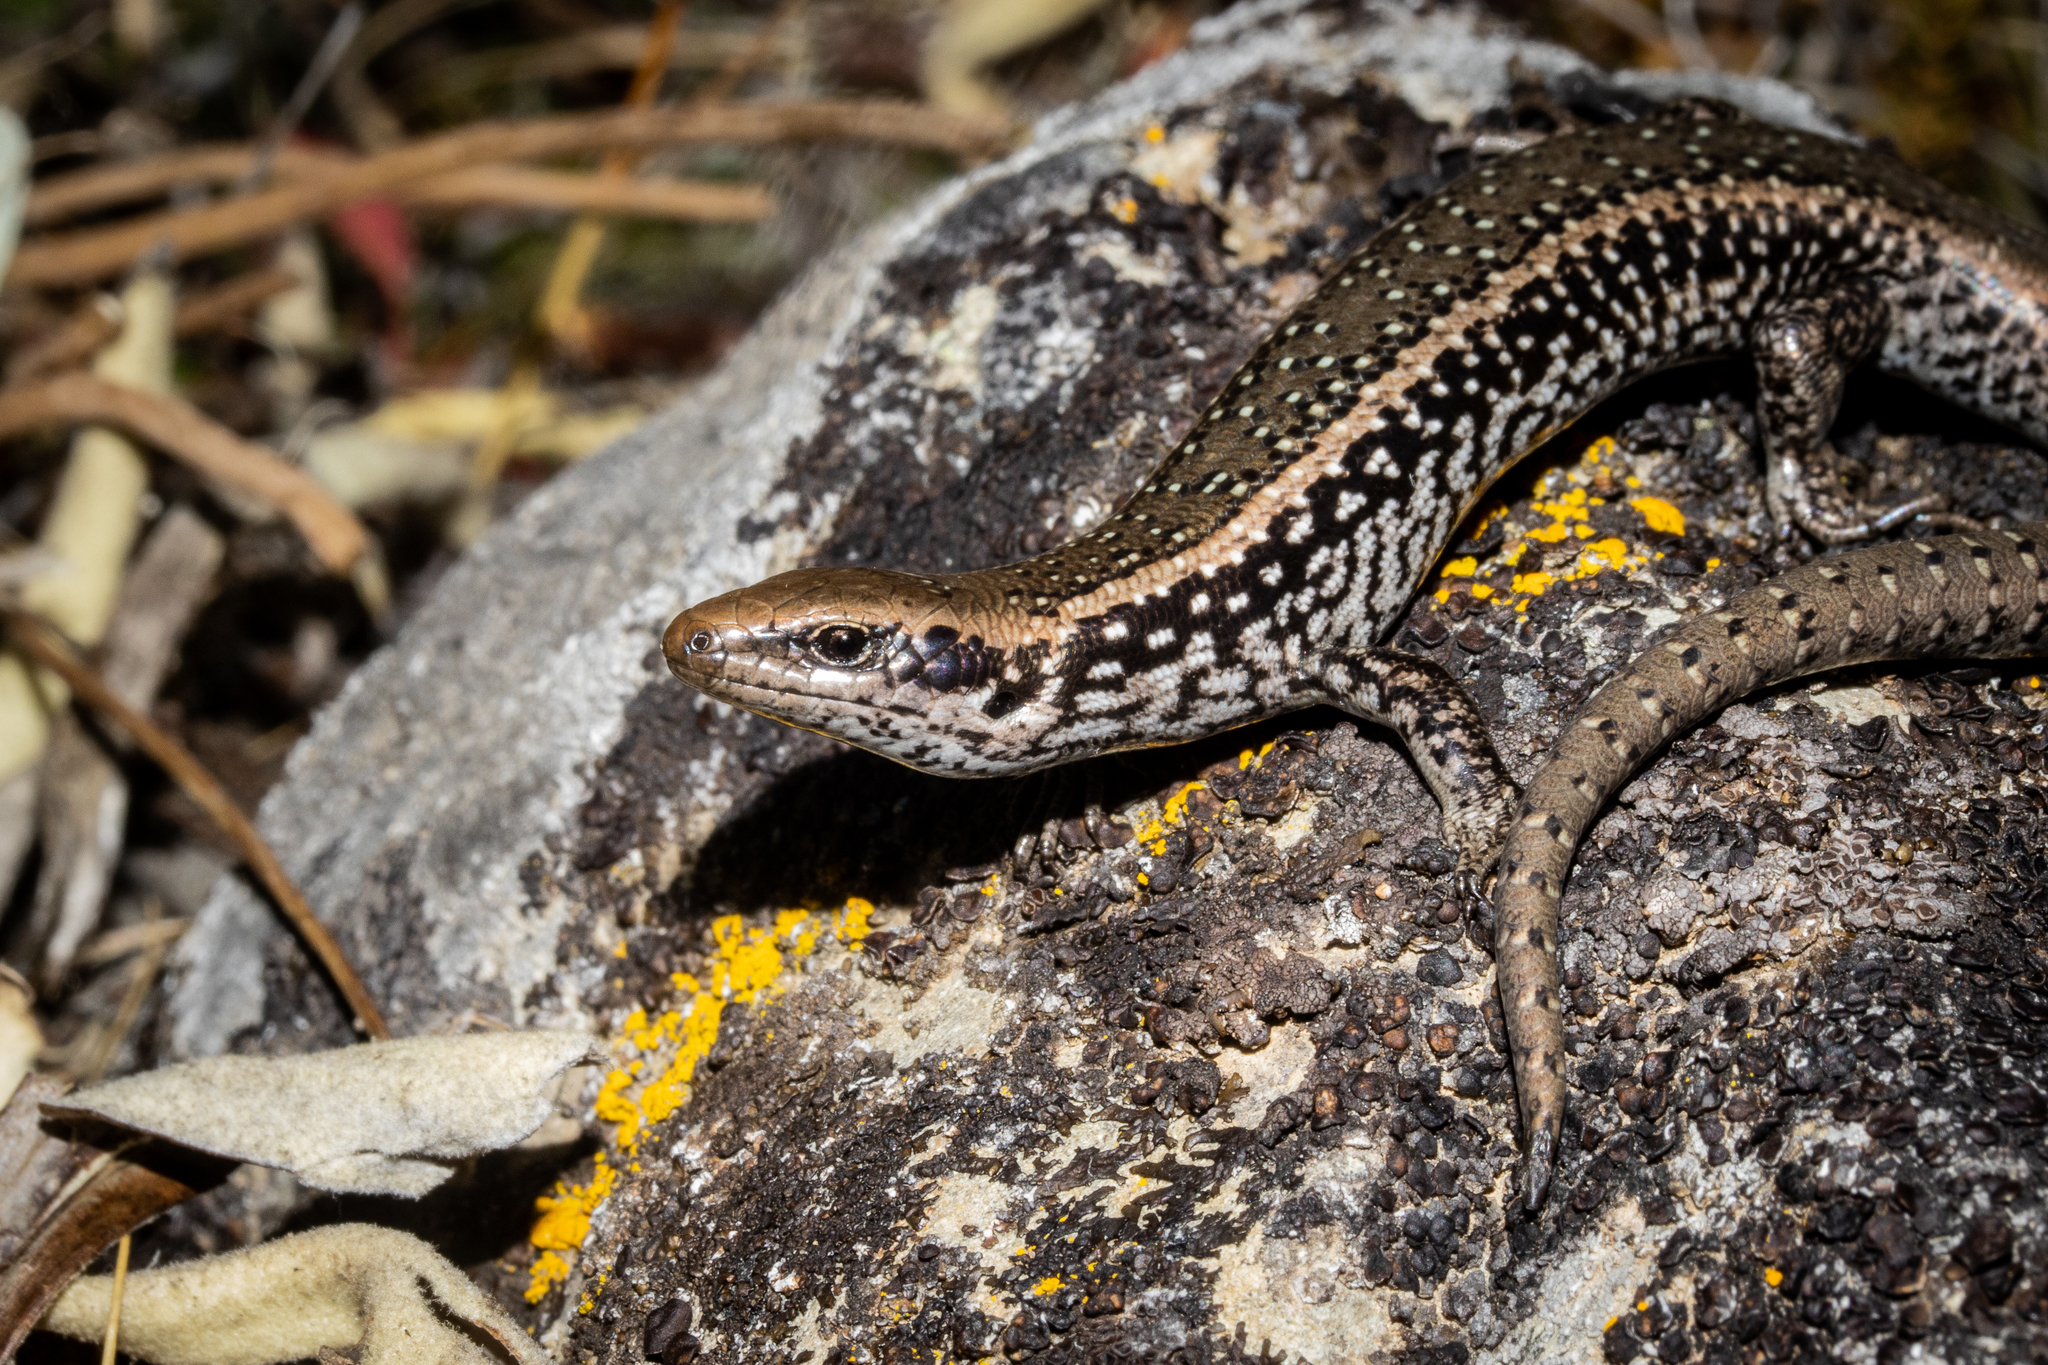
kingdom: Animalia
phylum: Chordata
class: Squamata
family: Scincidae
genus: Oligosoma
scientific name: Oligosoma elium
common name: Marlborough spotted skink
